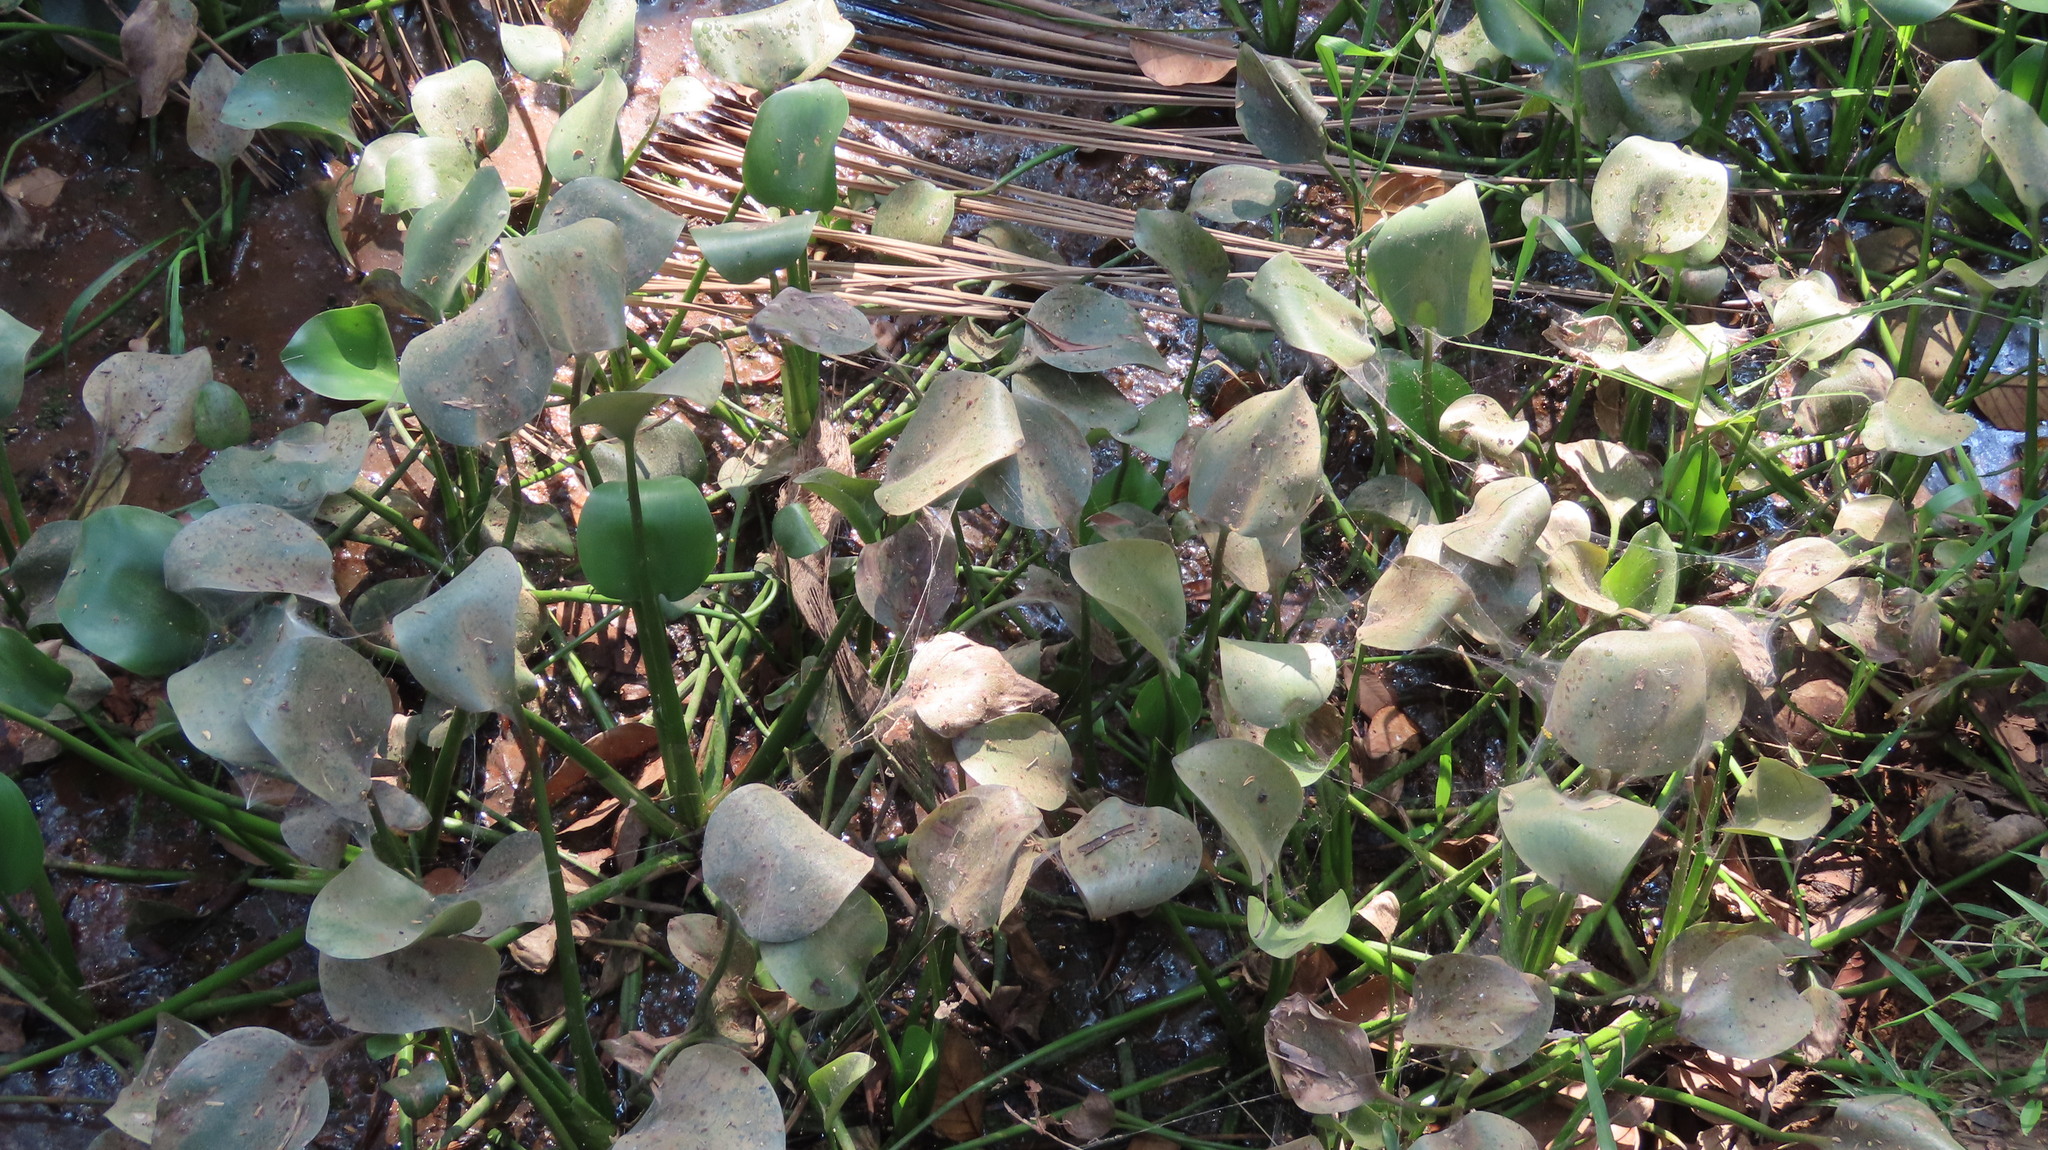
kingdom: Plantae
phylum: Tracheophyta
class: Liliopsida
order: Commelinales
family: Pontederiaceae
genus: Pontederia
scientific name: Pontederia crassipes
